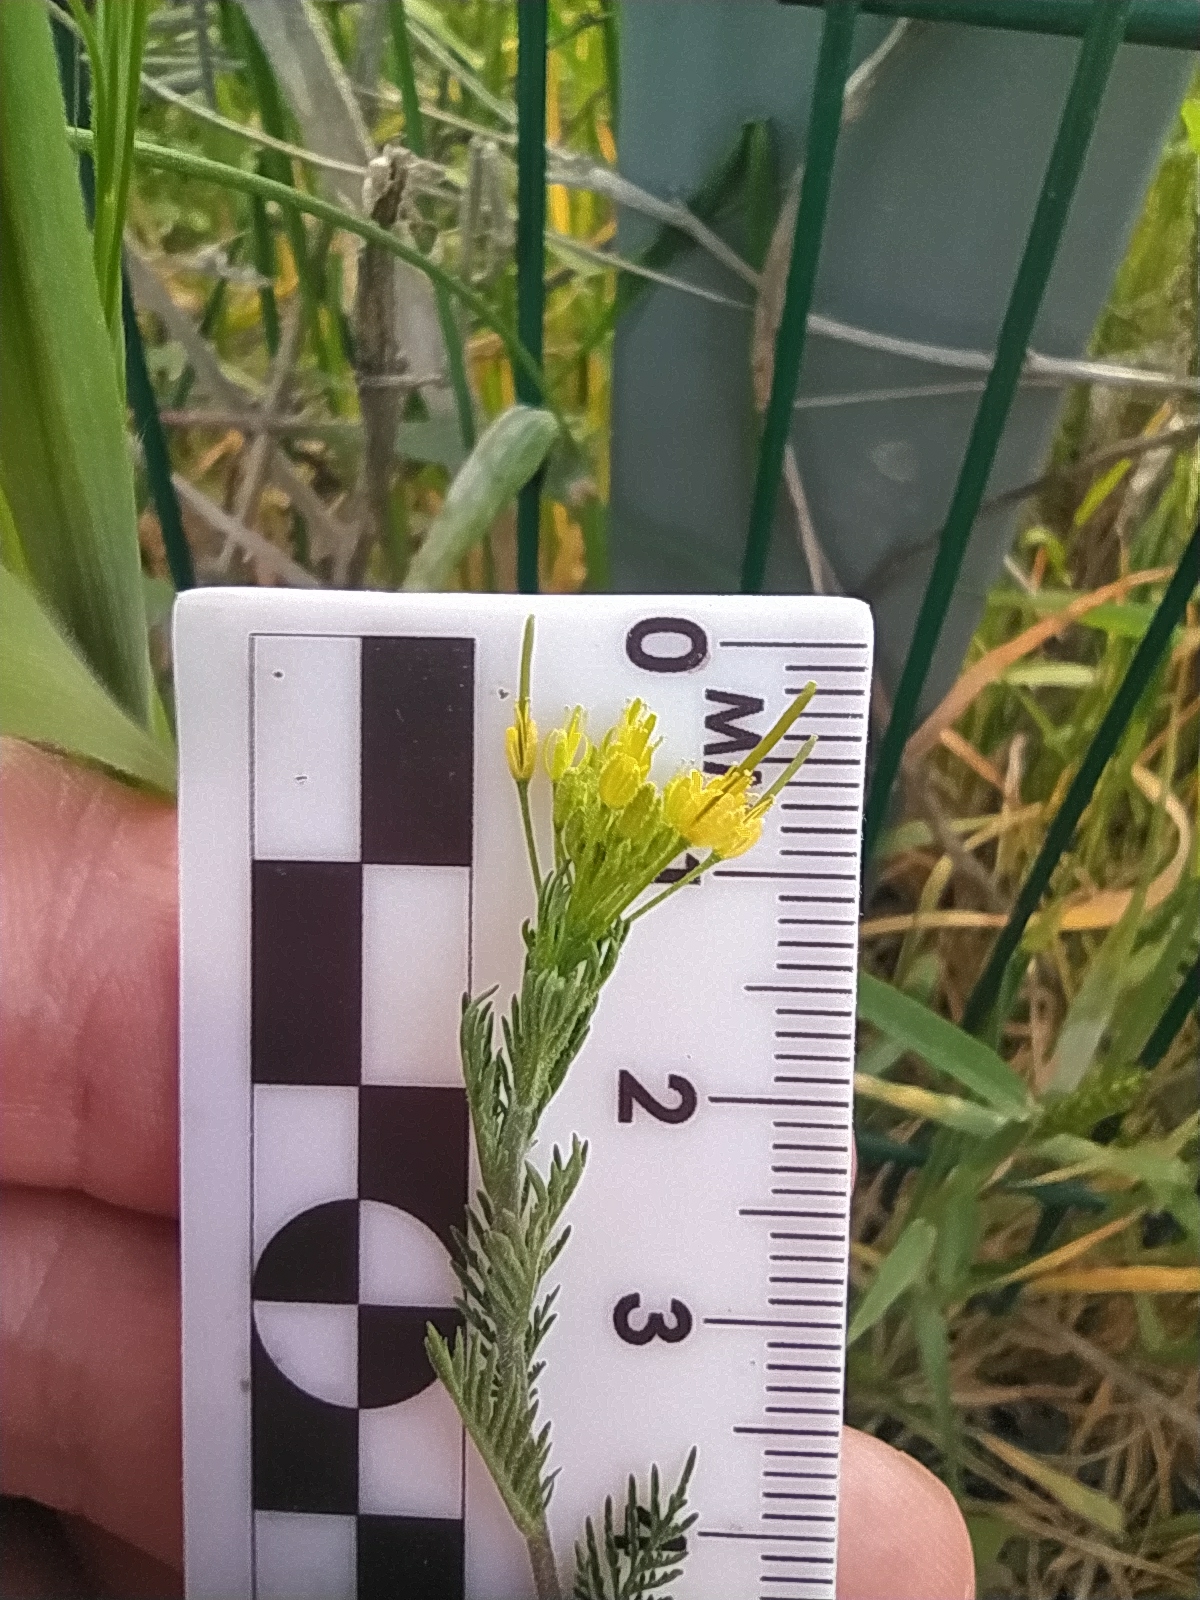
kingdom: Plantae
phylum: Tracheophyta
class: Magnoliopsida
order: Brassicales
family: Brassicaceae
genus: Descurainia
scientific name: Descurainia sophia
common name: Flixweed
